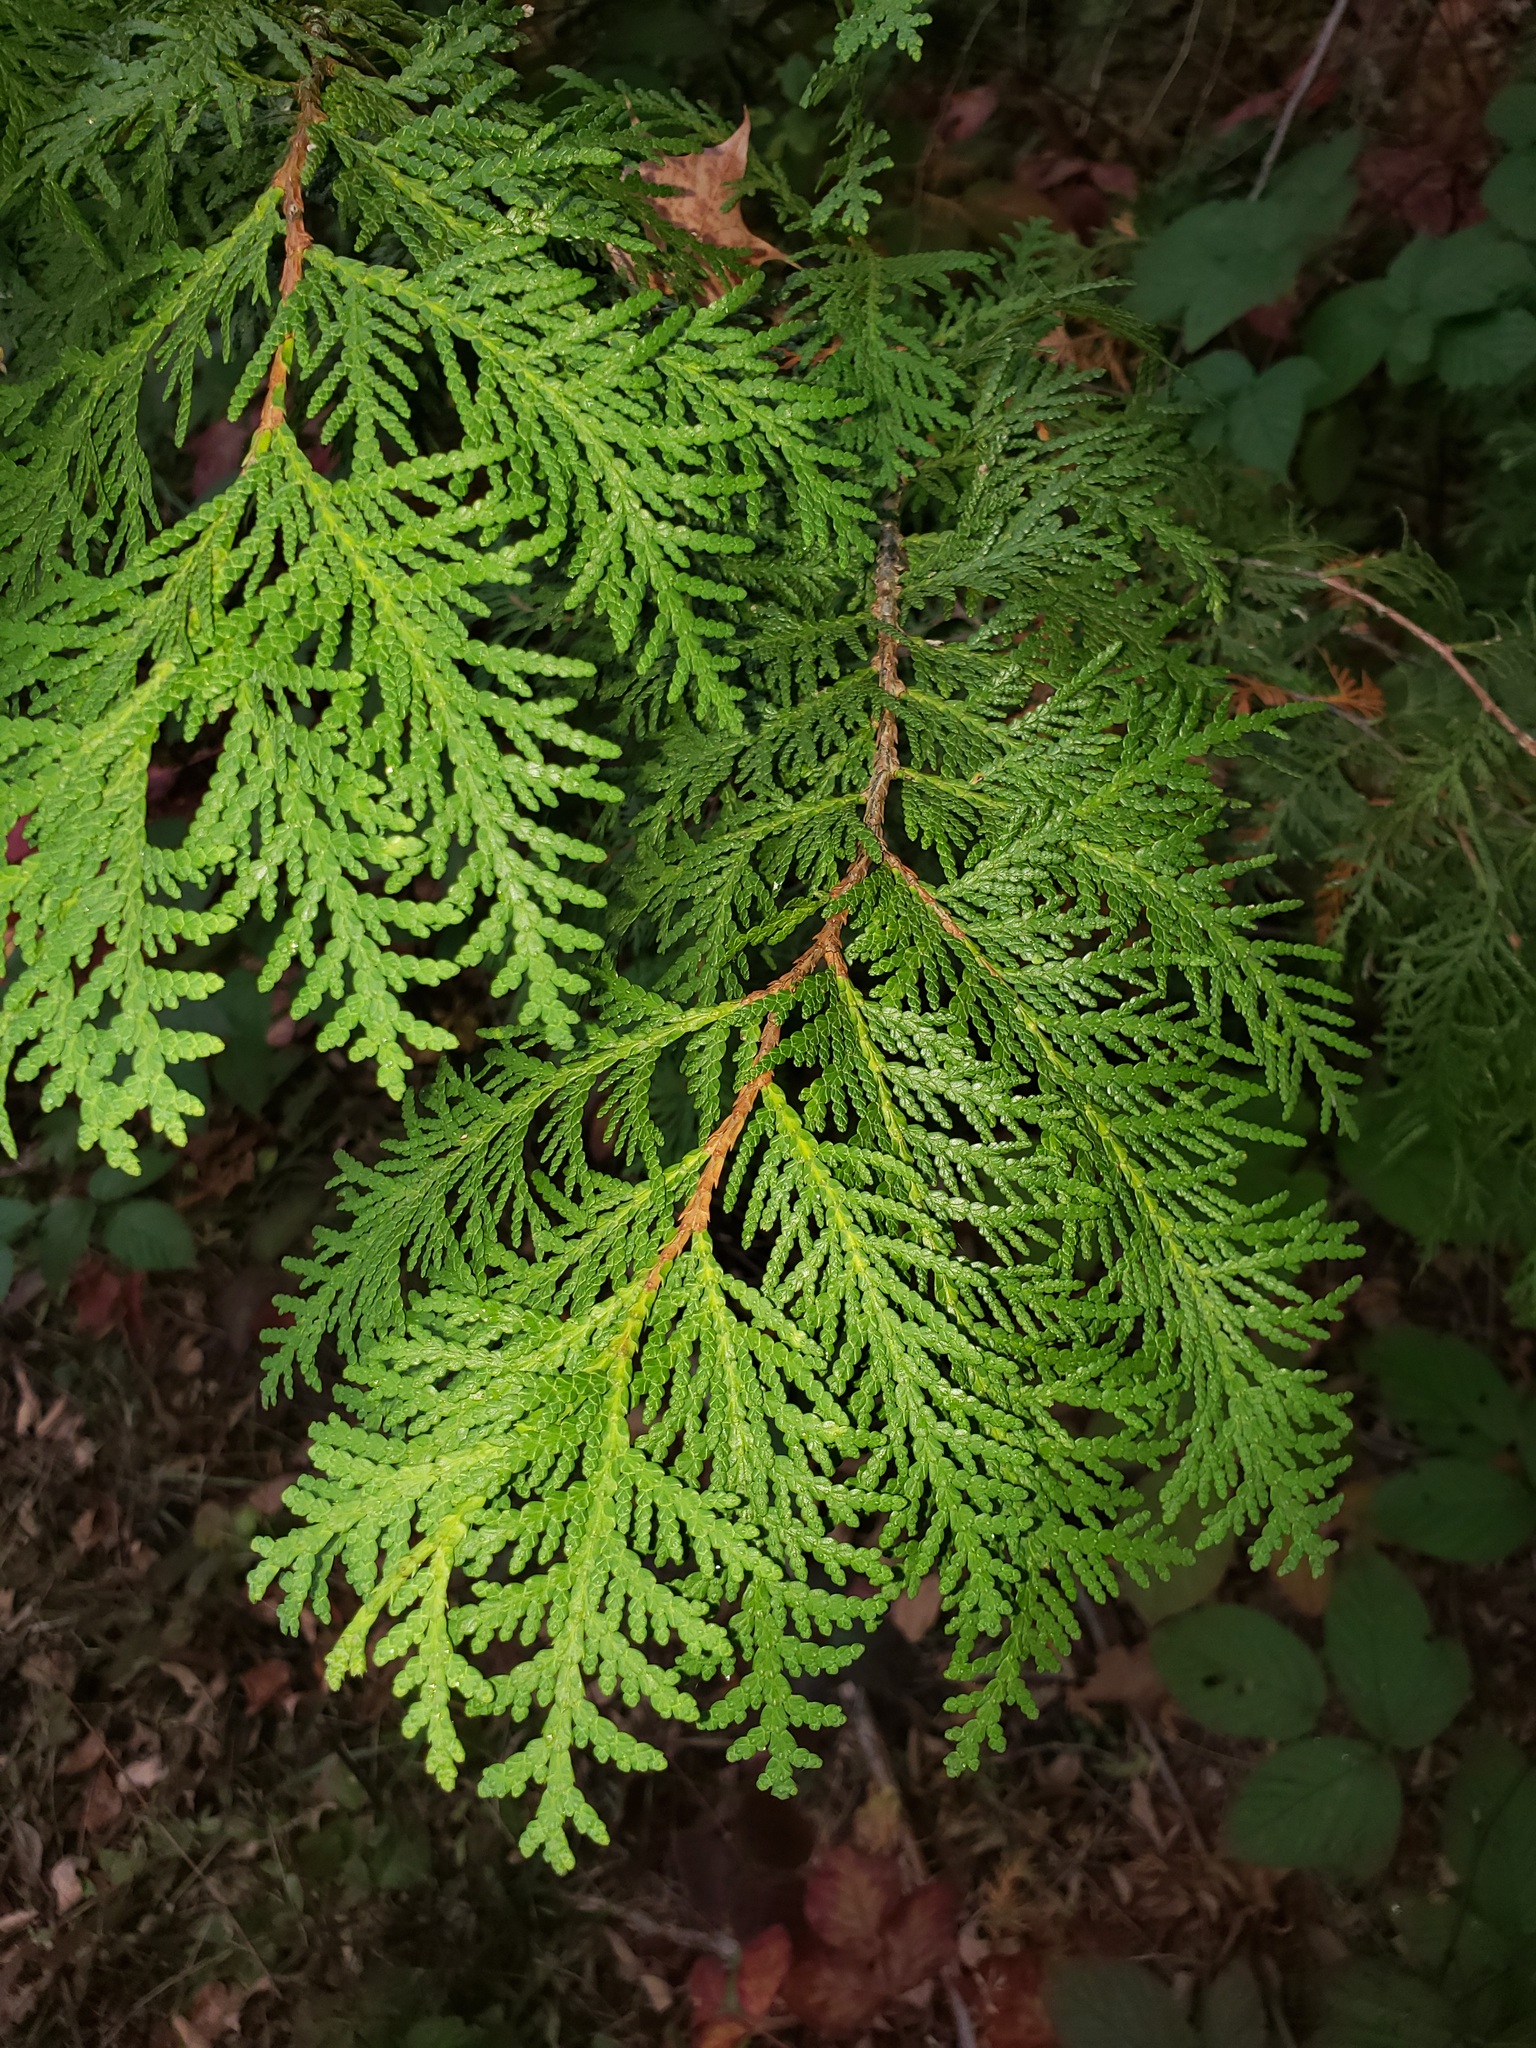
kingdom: Plantae
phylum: Tracheophyta
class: Pinopsida
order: Pinales
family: Cupressaceae
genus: Thuja
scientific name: Thuja occidentalis
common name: Northern white-cedar
